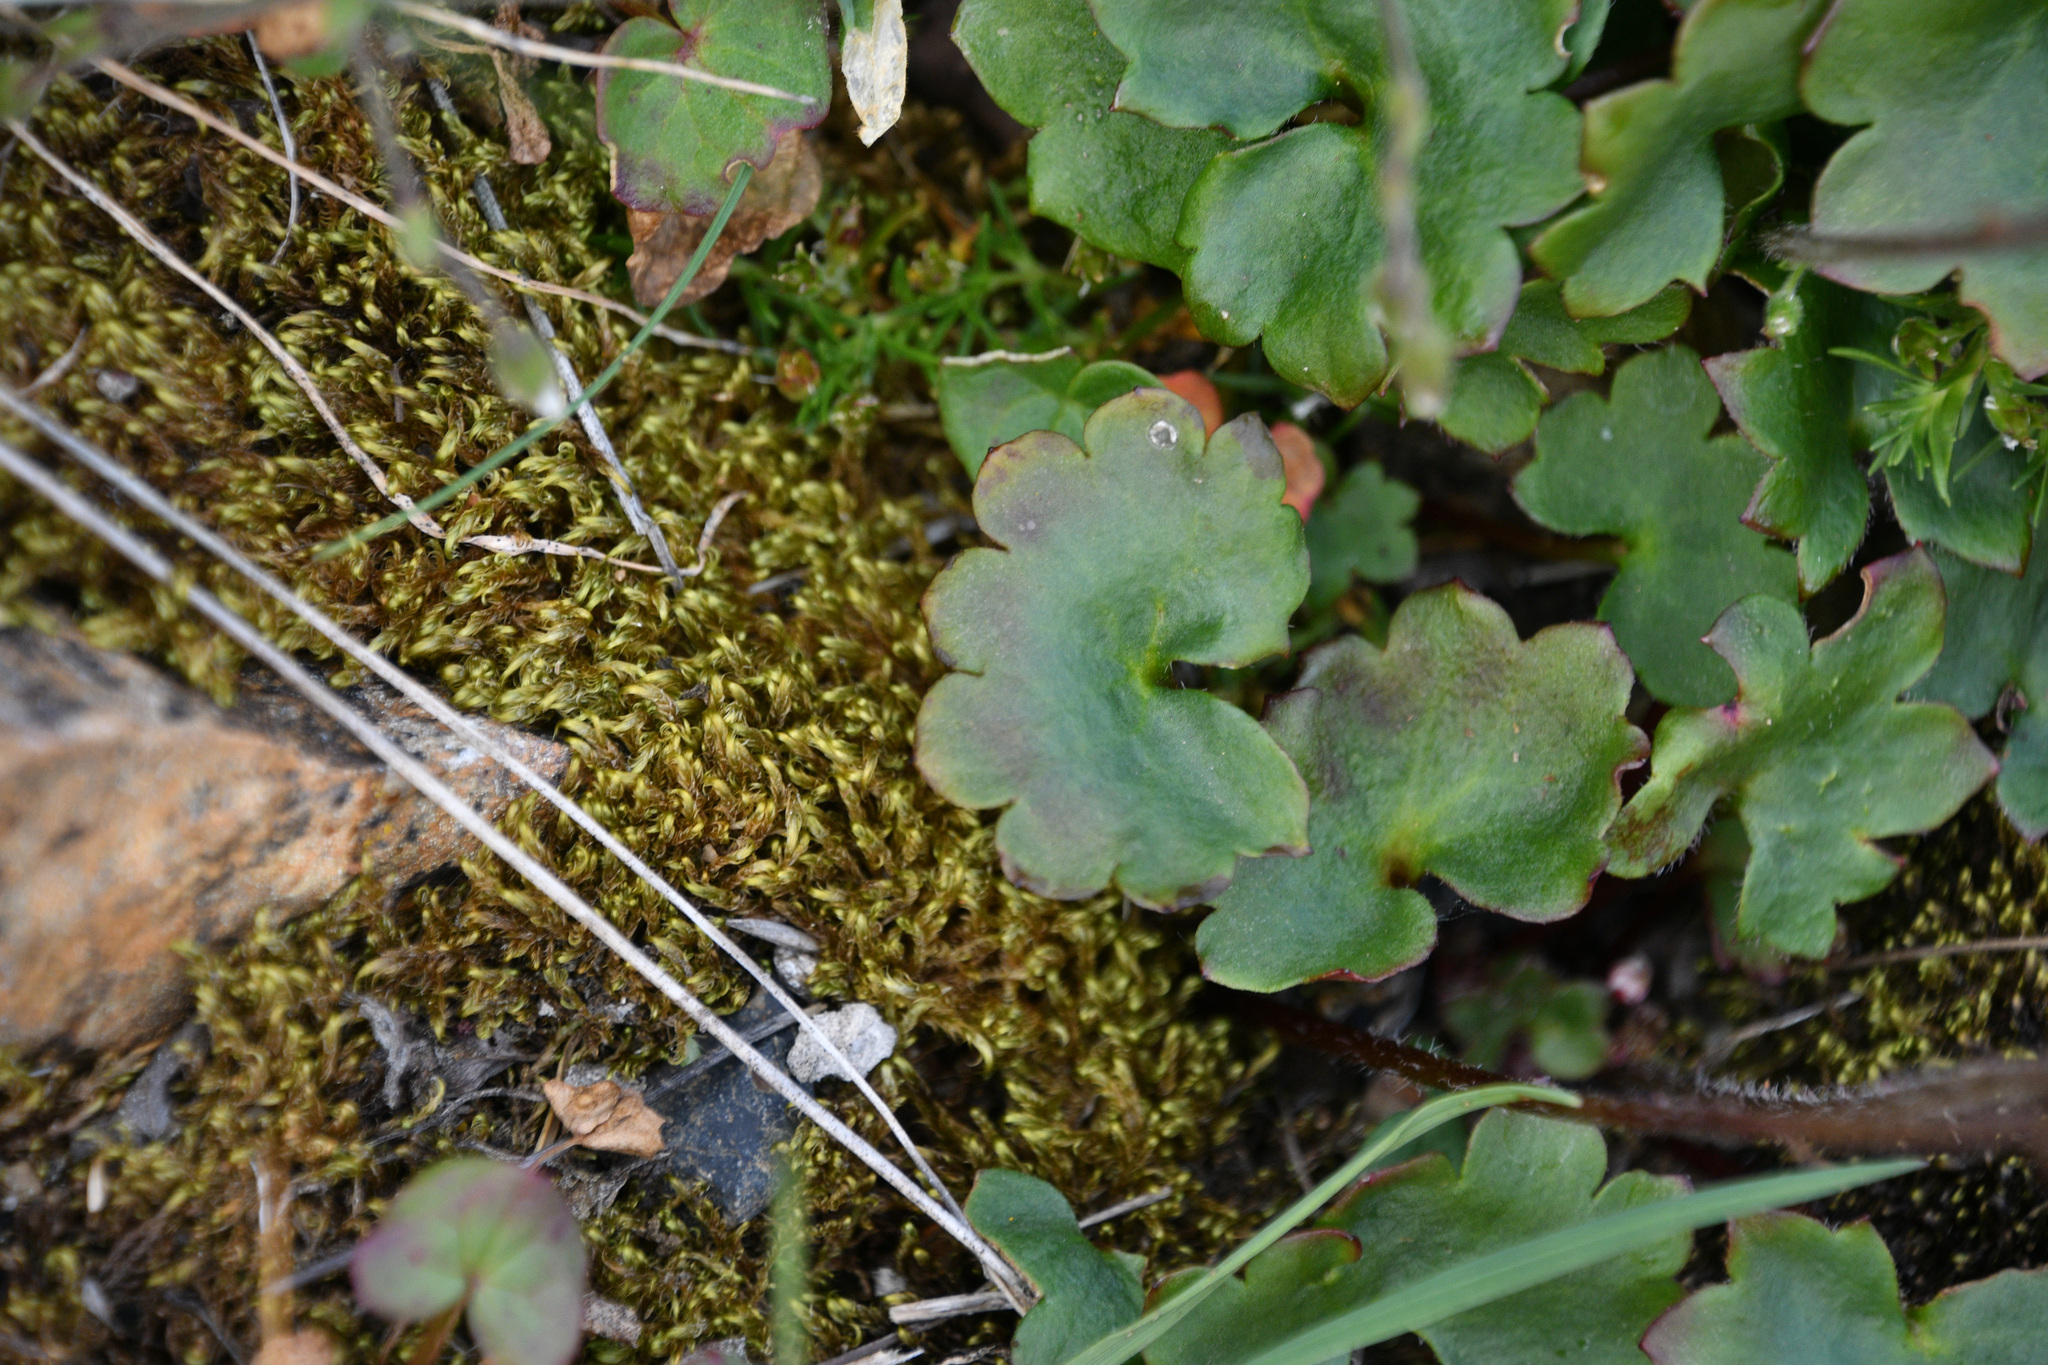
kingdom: Plantae
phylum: Tracheophyta
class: Magnoliopsida
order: Saxifragales
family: Saxifragaceae
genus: Micranthes
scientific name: Micranthes nelsoniana
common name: Nelson's saxifrage
